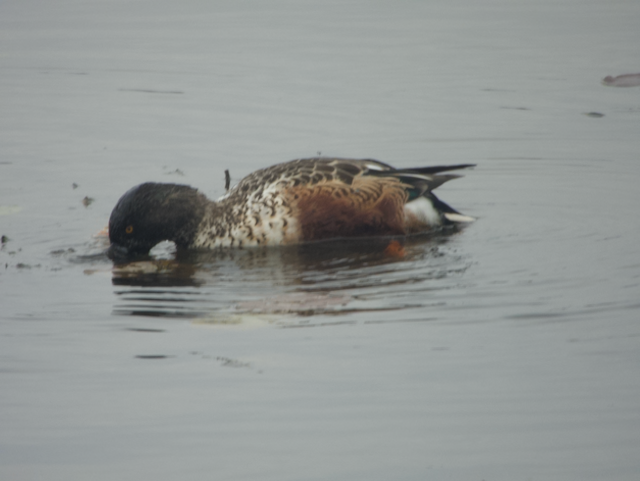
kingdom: Animalia
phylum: Chordata
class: Aves
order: Anseriformes
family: Anatidae
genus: Spatula
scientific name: Spatula clypeata
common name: Northern shoveler
